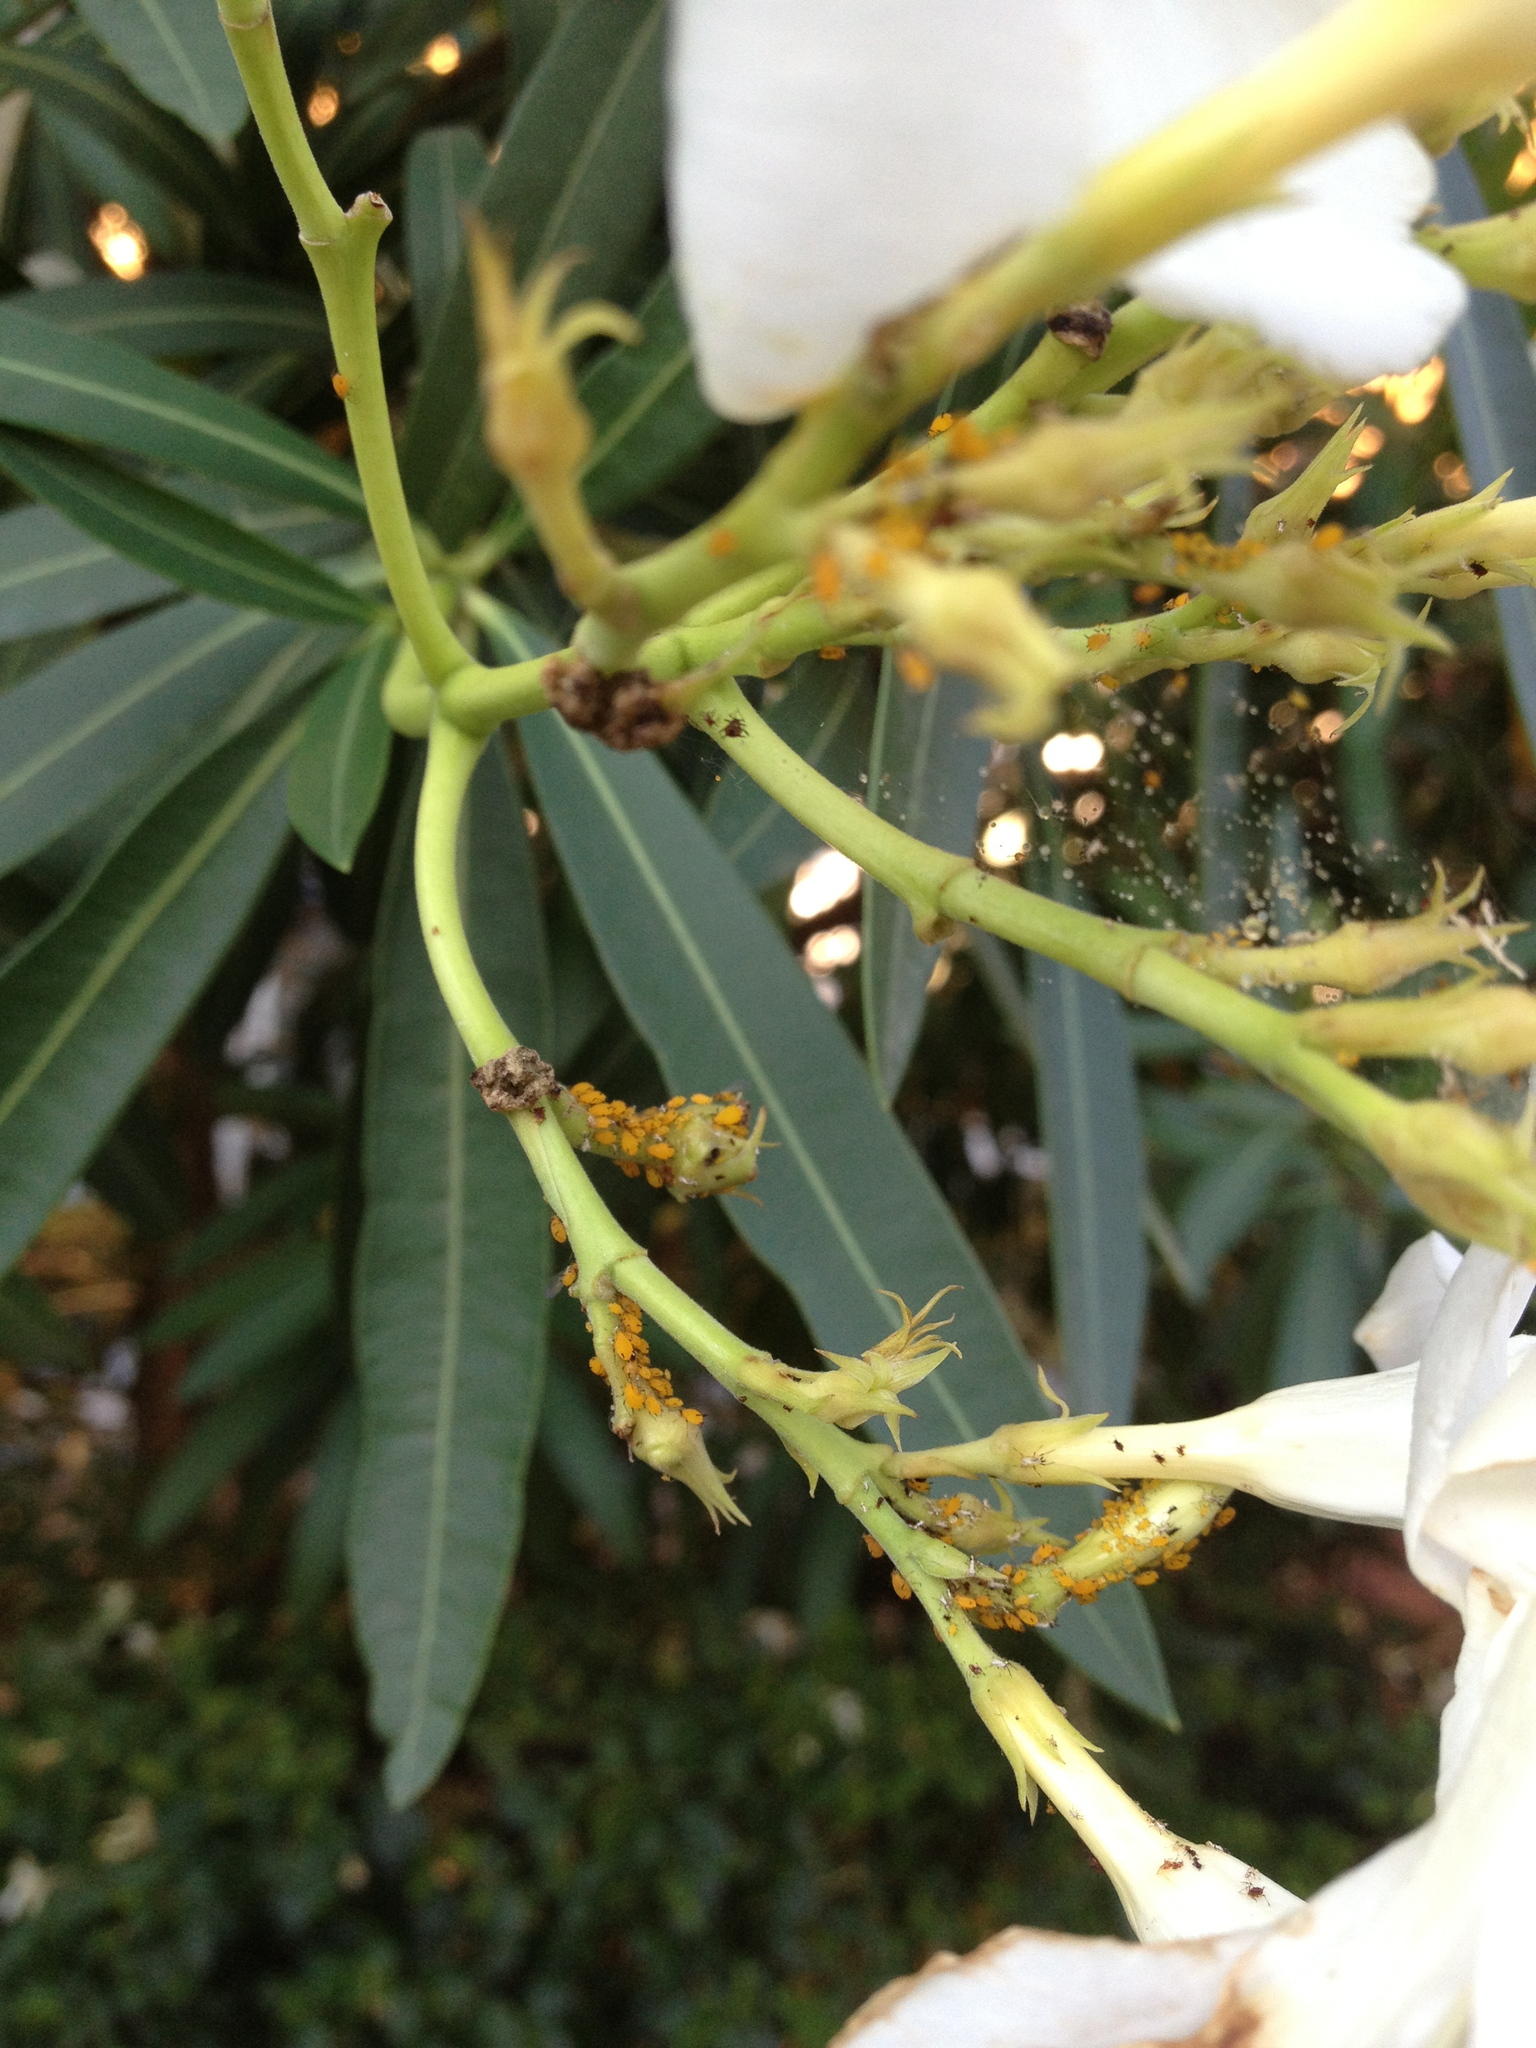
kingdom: Animalia
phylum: Arthropoda
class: Insecta
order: Hemiptera
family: Aphididae
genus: Aphis
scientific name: Aphis nerii
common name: Oleander aphid
